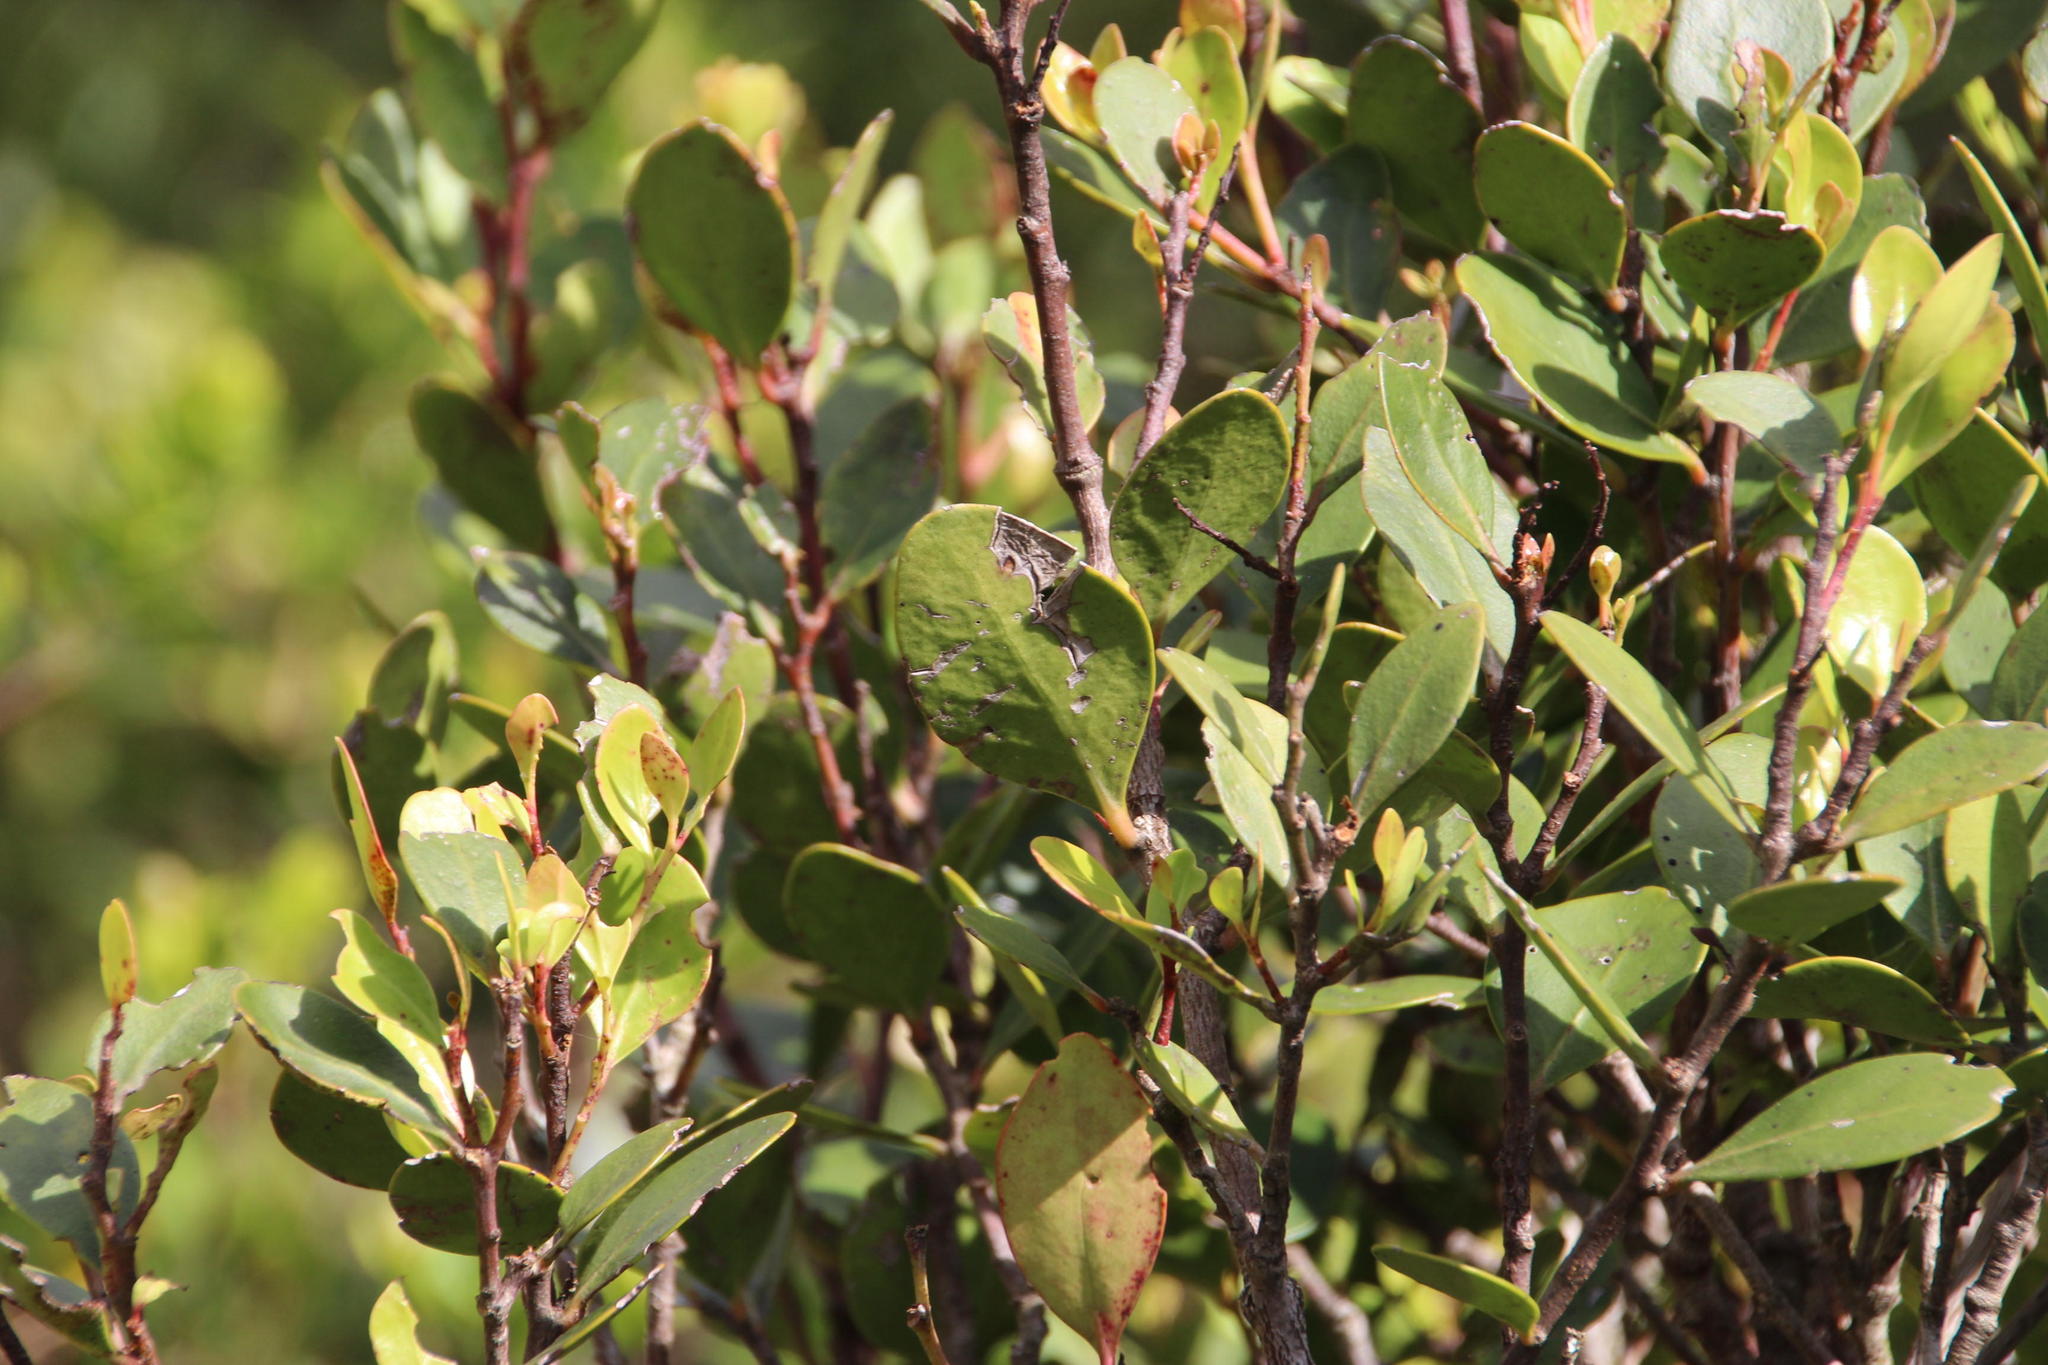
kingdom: Plantae
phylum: Tracheophyta
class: Magnoliopsida
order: Celastrales
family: Celastraceae
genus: Pterocelastrus
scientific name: Pterocelastrus tricuspidatus
